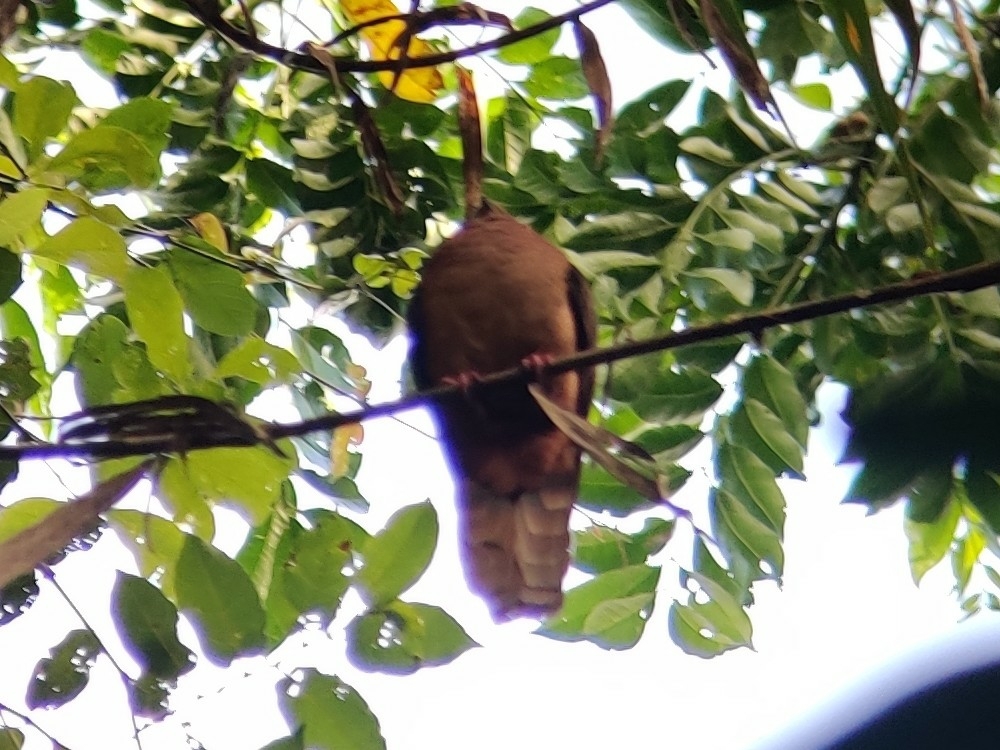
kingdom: Animalia
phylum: Chordata
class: Aves
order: Columbiformes
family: Columbidae
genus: Macropygia
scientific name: Macropygia phasianella
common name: Brown cuckoo-dove
